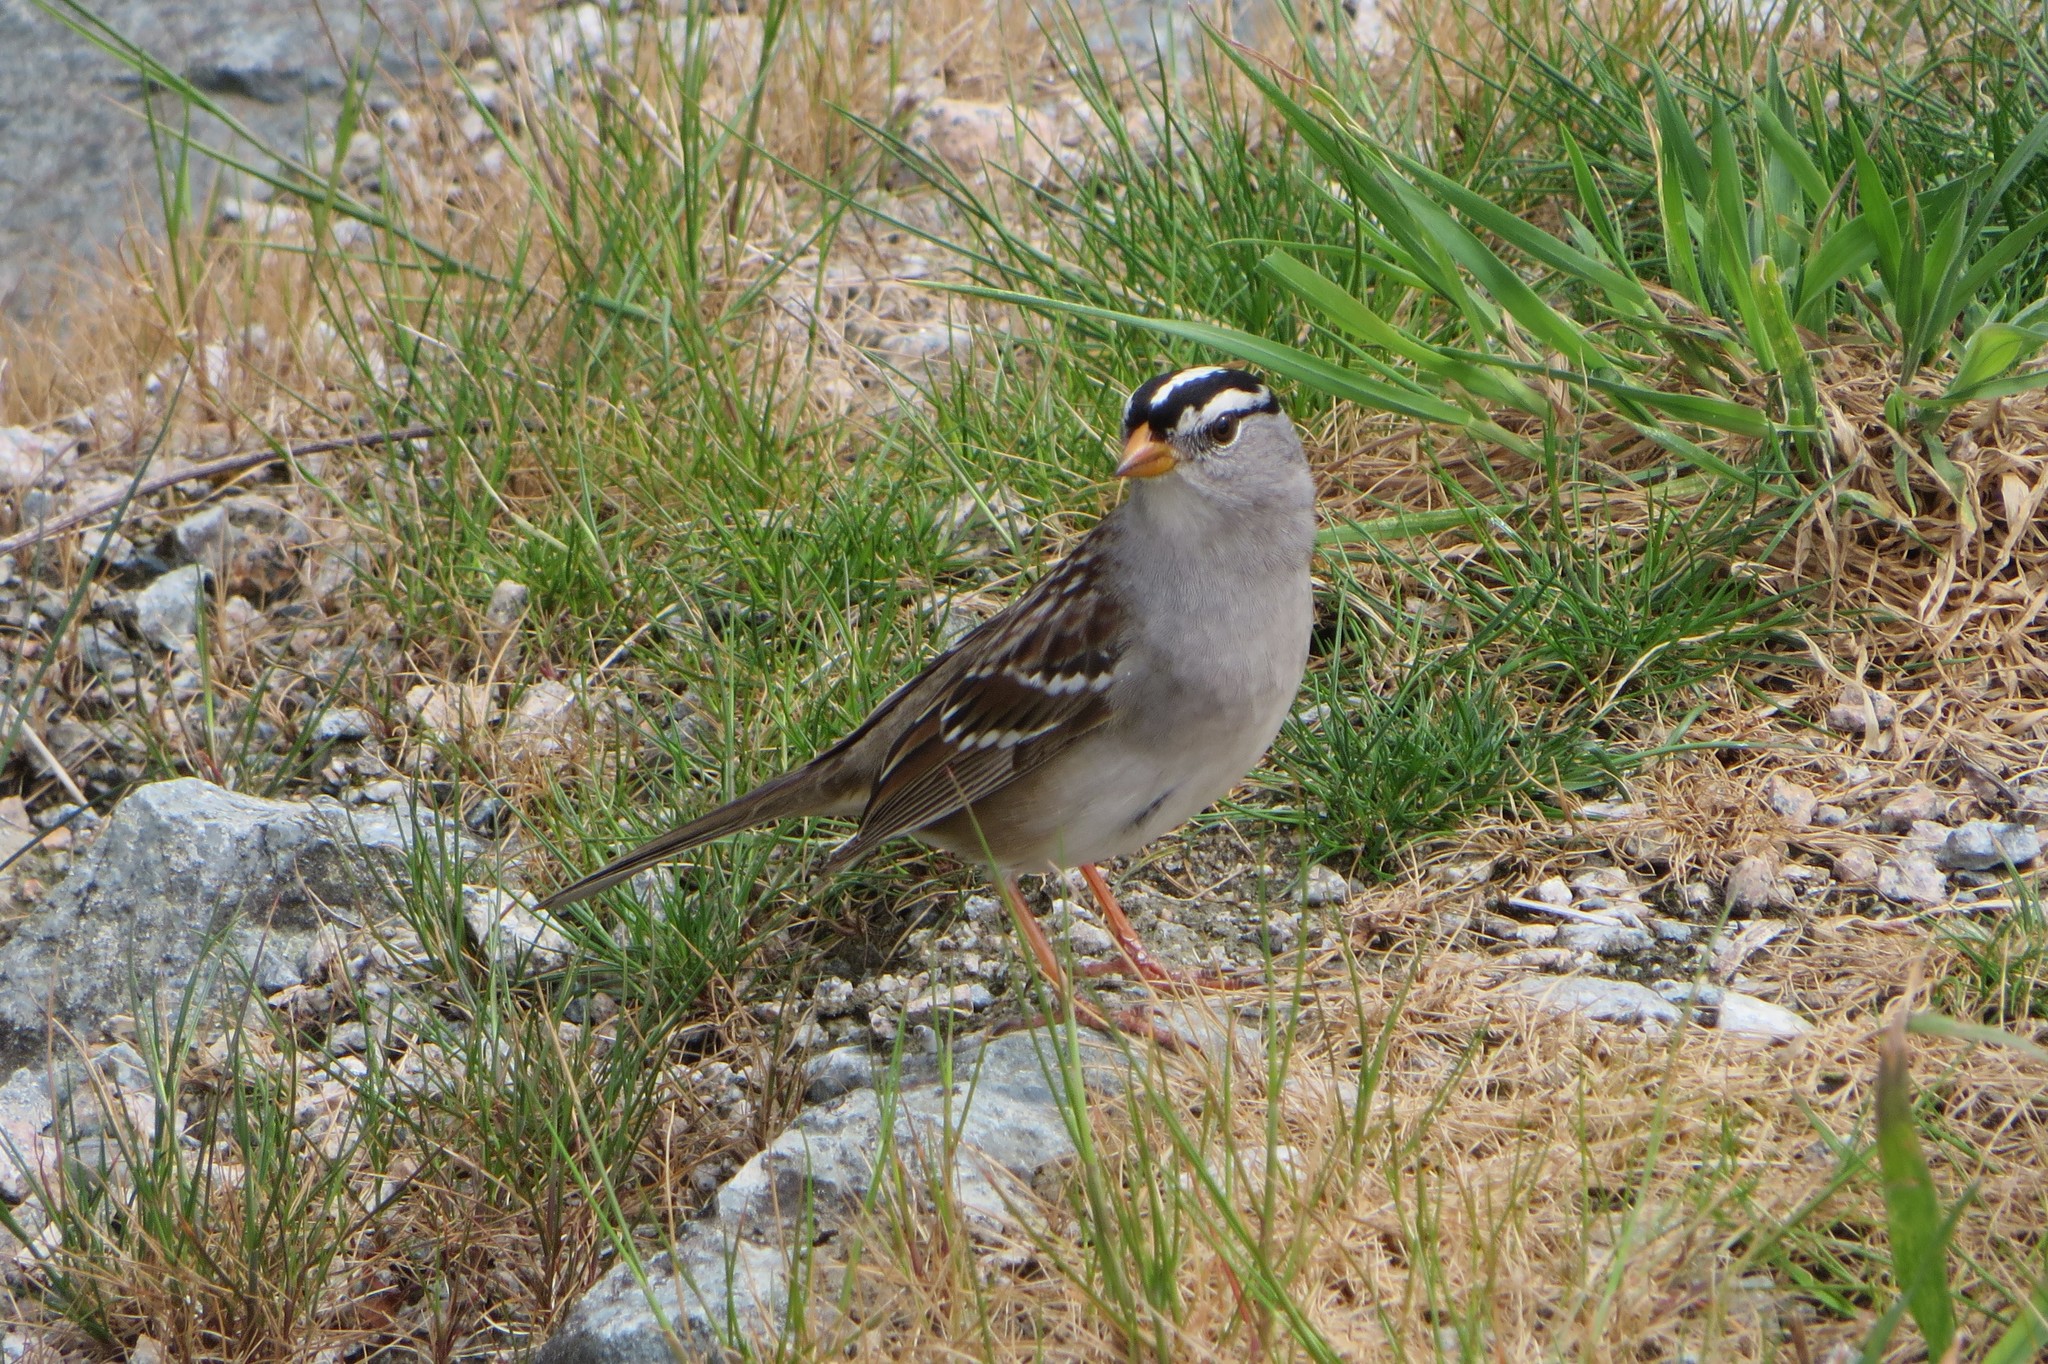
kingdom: Animalia
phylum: Chordata
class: Aves
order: Passeriformes
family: Passerellidae
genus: Zonotrichia
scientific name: Zonotrichia leucophrys
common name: White-crowned sparrow
